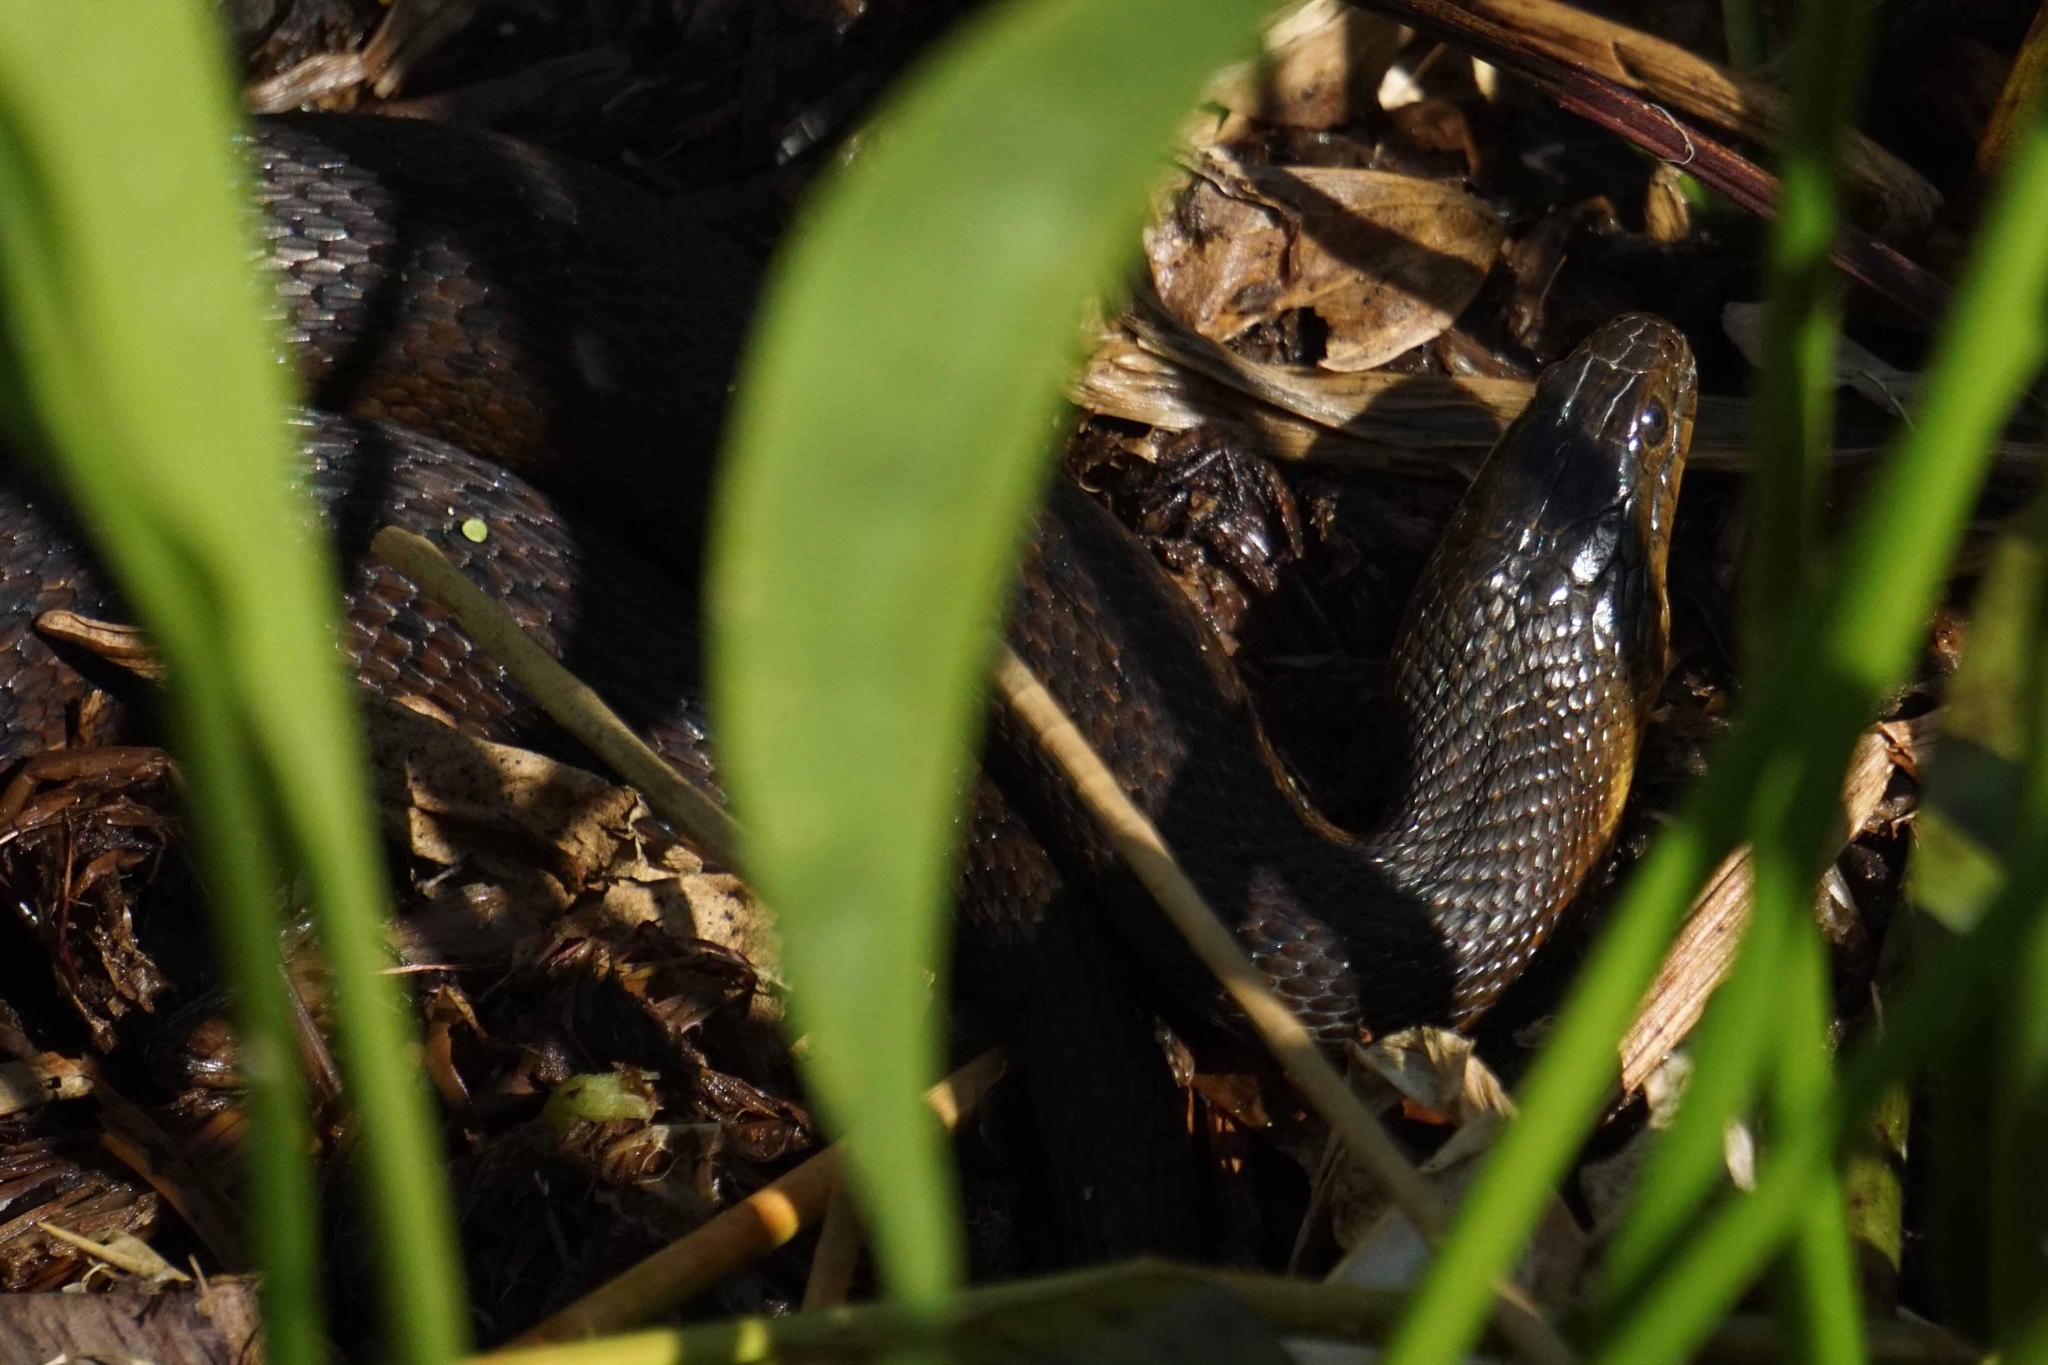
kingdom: Animalia
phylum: Chordata
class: Squamata
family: Colubridae
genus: Nerodia
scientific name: Nerodia floridana
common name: Florida green watersnake
